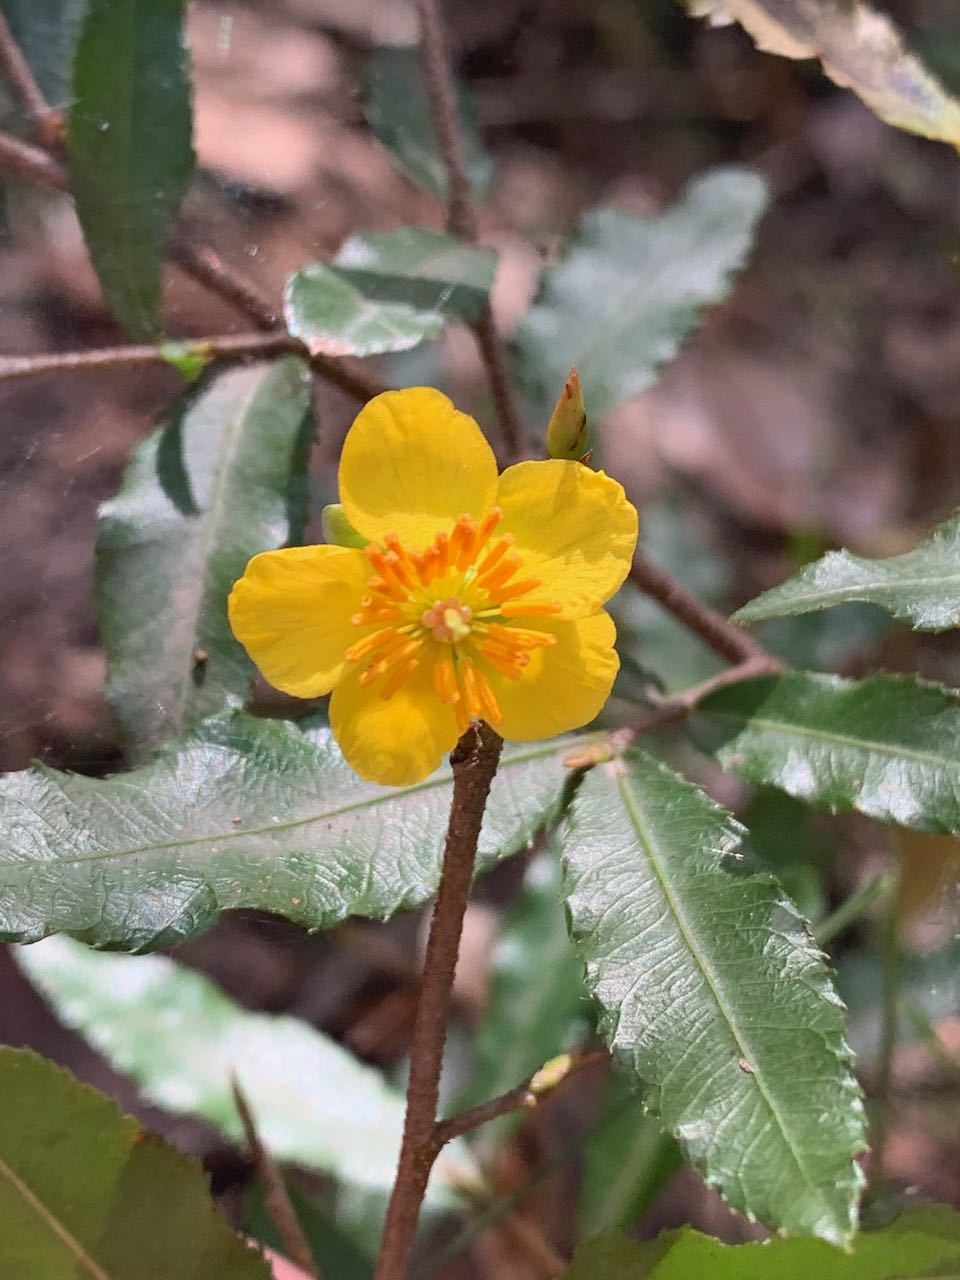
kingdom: Plantae
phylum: Tracheophyta
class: Magnoliopsida
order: Malpighiales
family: Ochnaceae
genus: Ochna
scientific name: Ochna serrulata
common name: Mickey mouse plant
